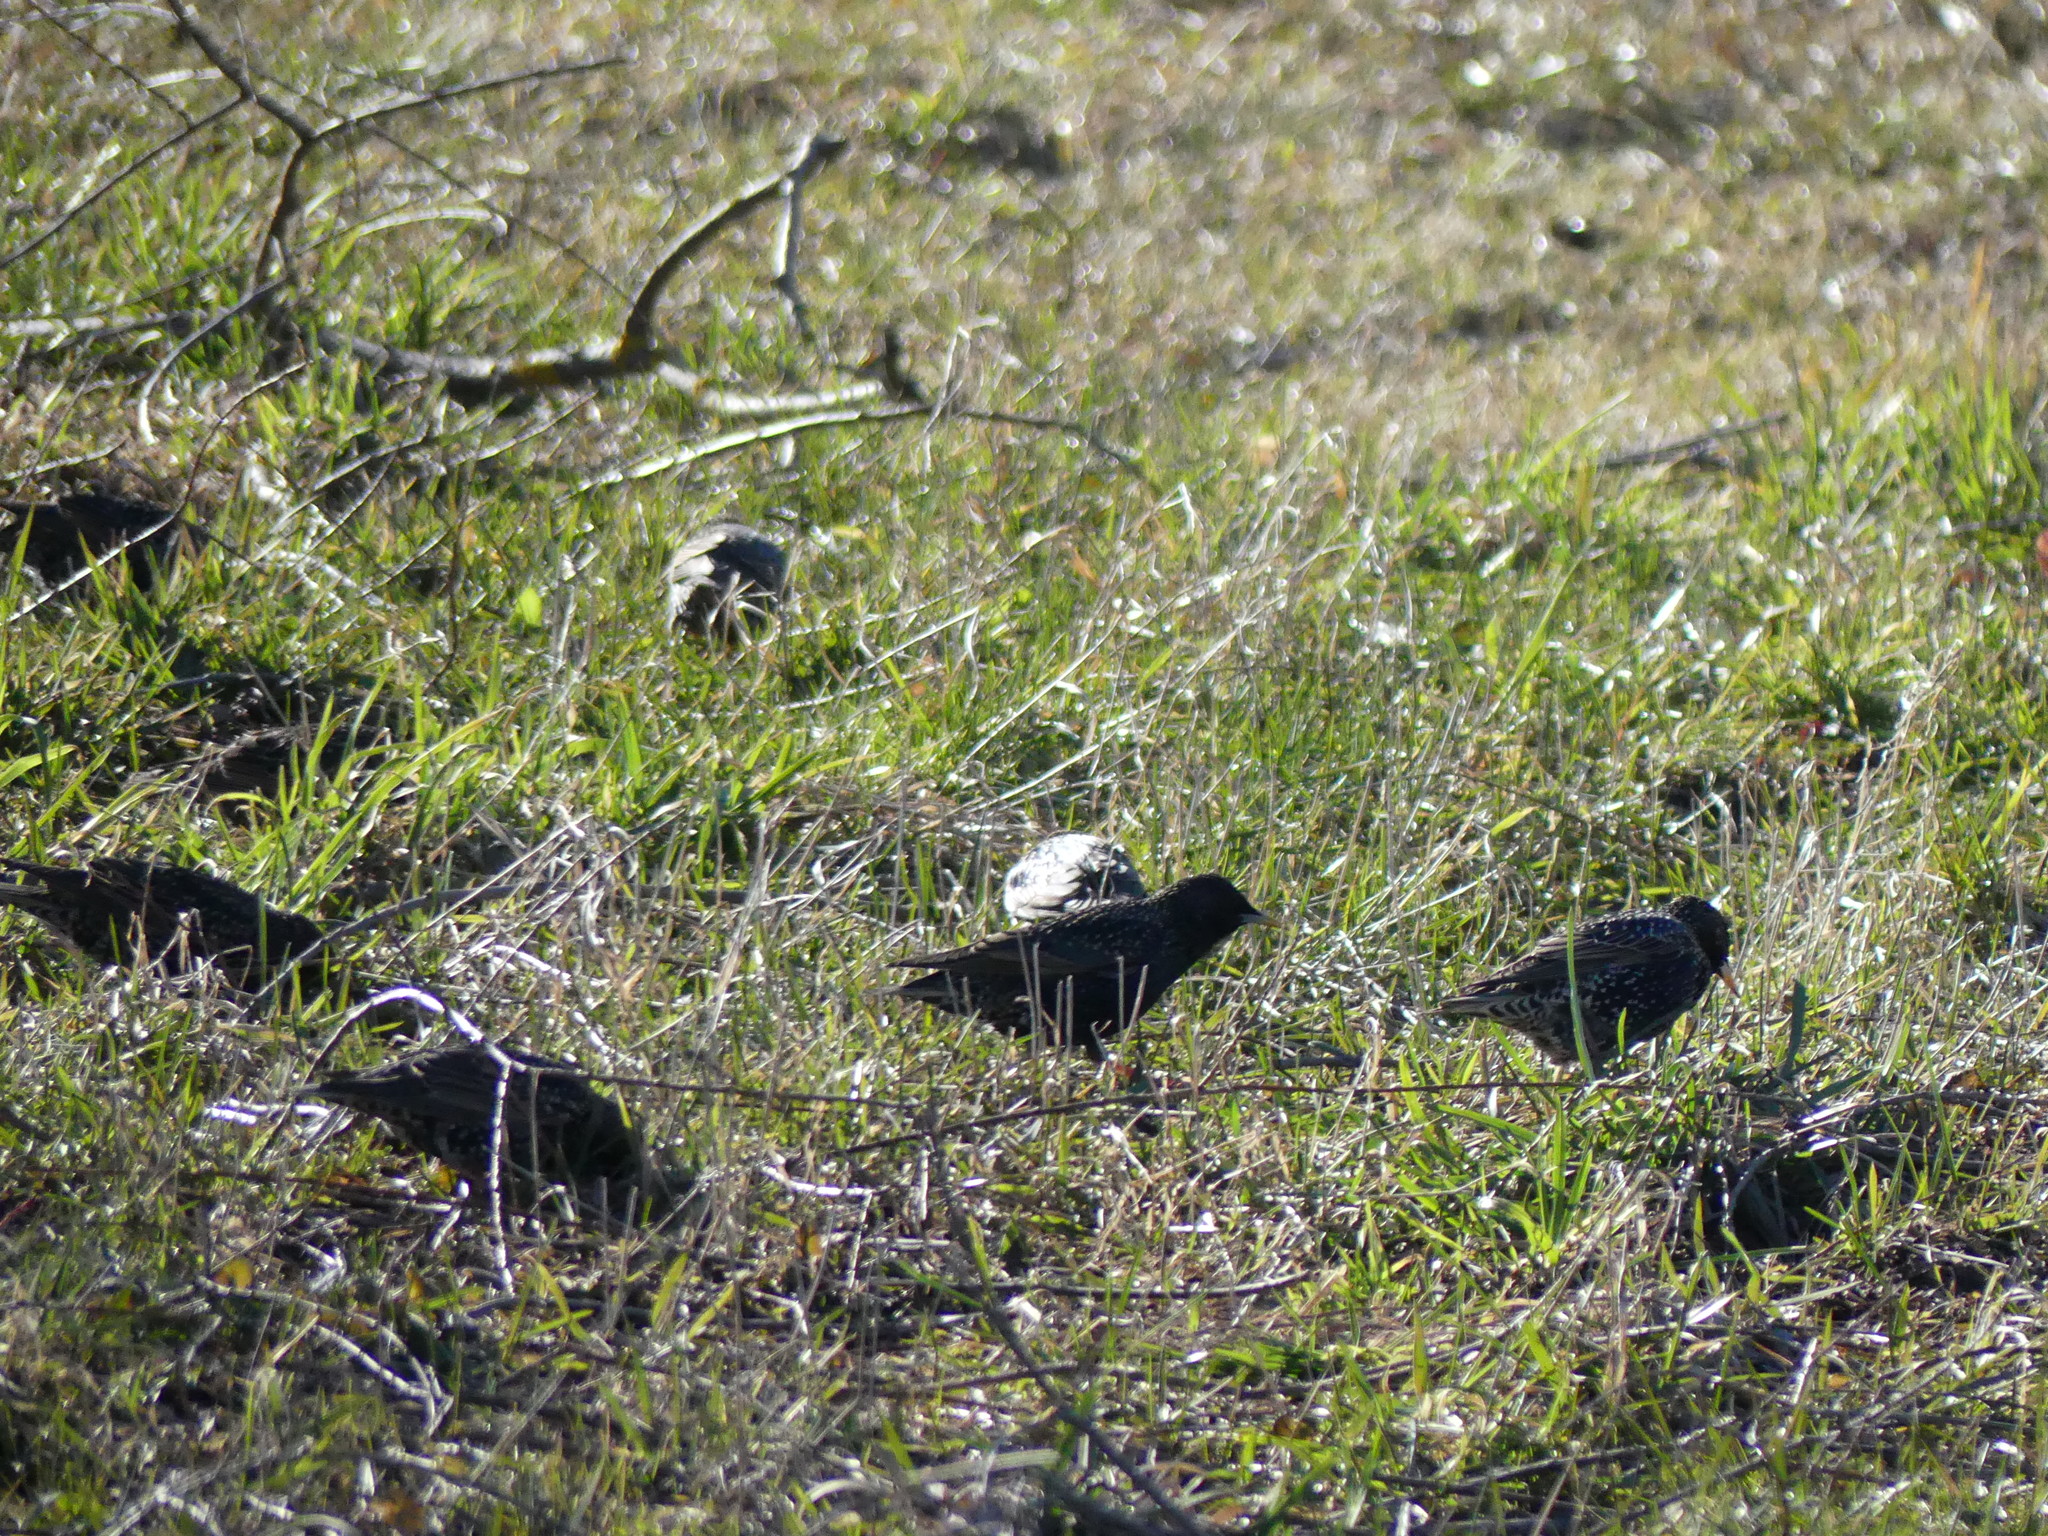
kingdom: Animalia
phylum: Chordata
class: Aves
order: Passeriformes
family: Sturnidae
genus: Sturnus
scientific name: Sturnus vulgaris
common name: Common starling
